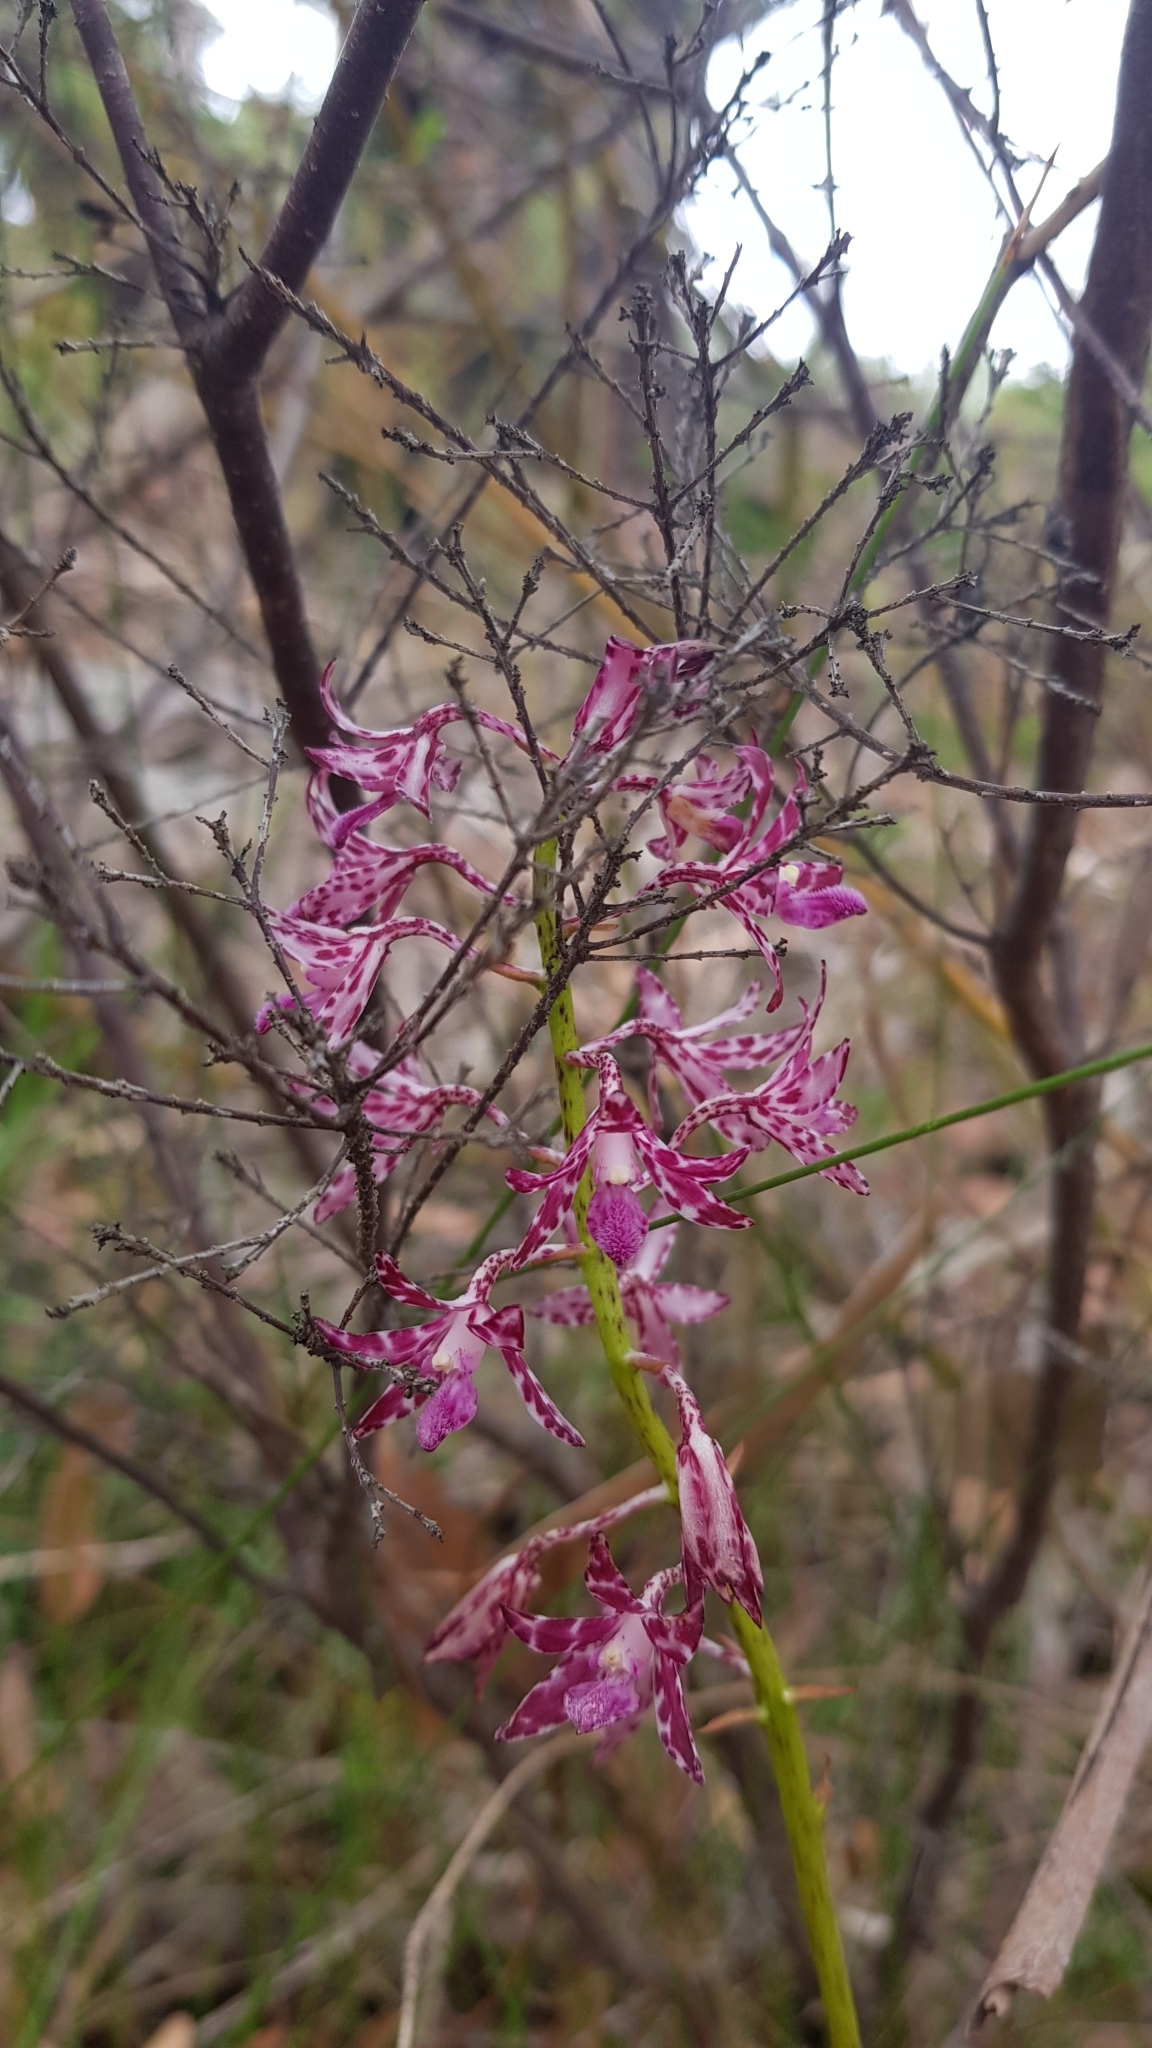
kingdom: Plantae
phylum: Tracheophyta
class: Liliopsida
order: Asparagales
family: Orchidaceae
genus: Dipodium
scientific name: Dipodium variegatum
